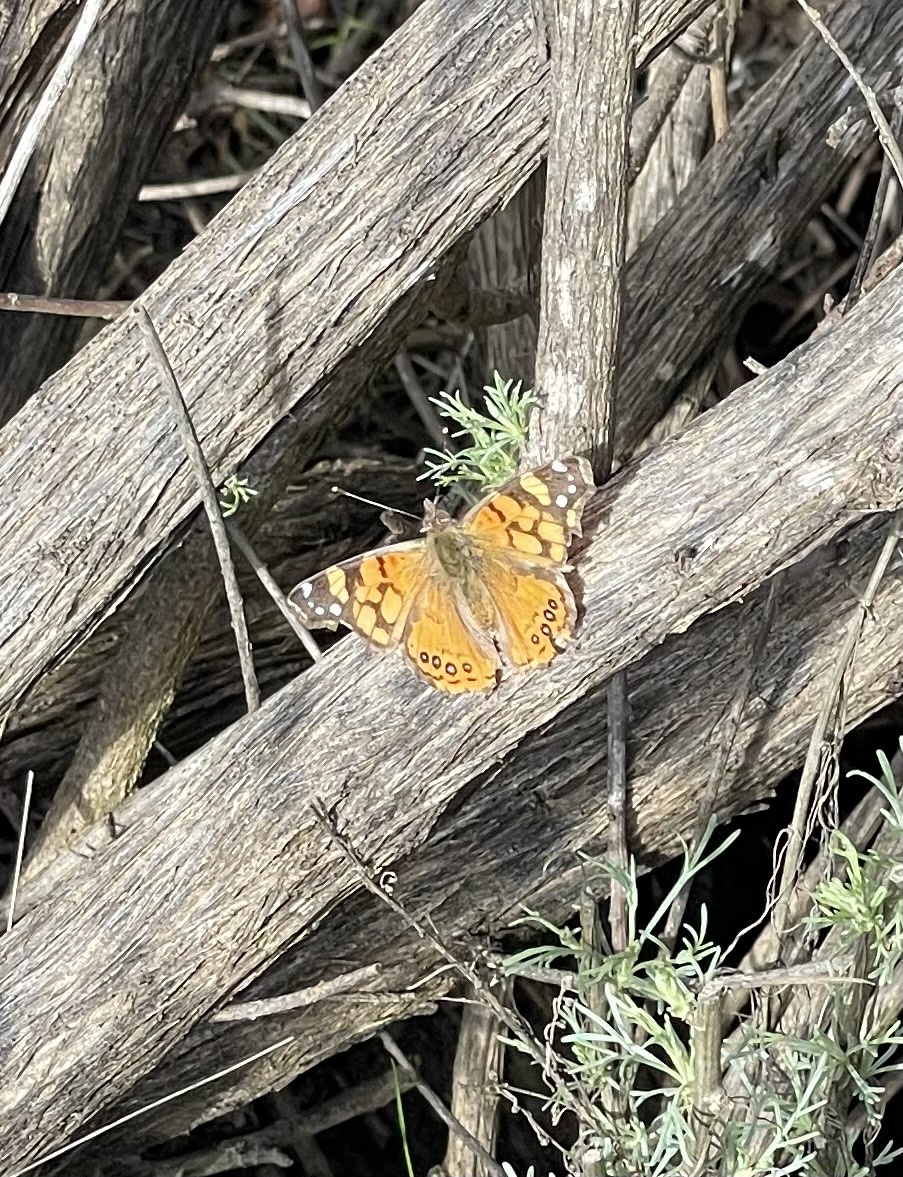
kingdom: Animalia
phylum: Arthropoda
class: Insecta
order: Lepidoptera
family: Nymphalidae
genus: Vanessa
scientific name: Vanessa annabella
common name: West coast lady
